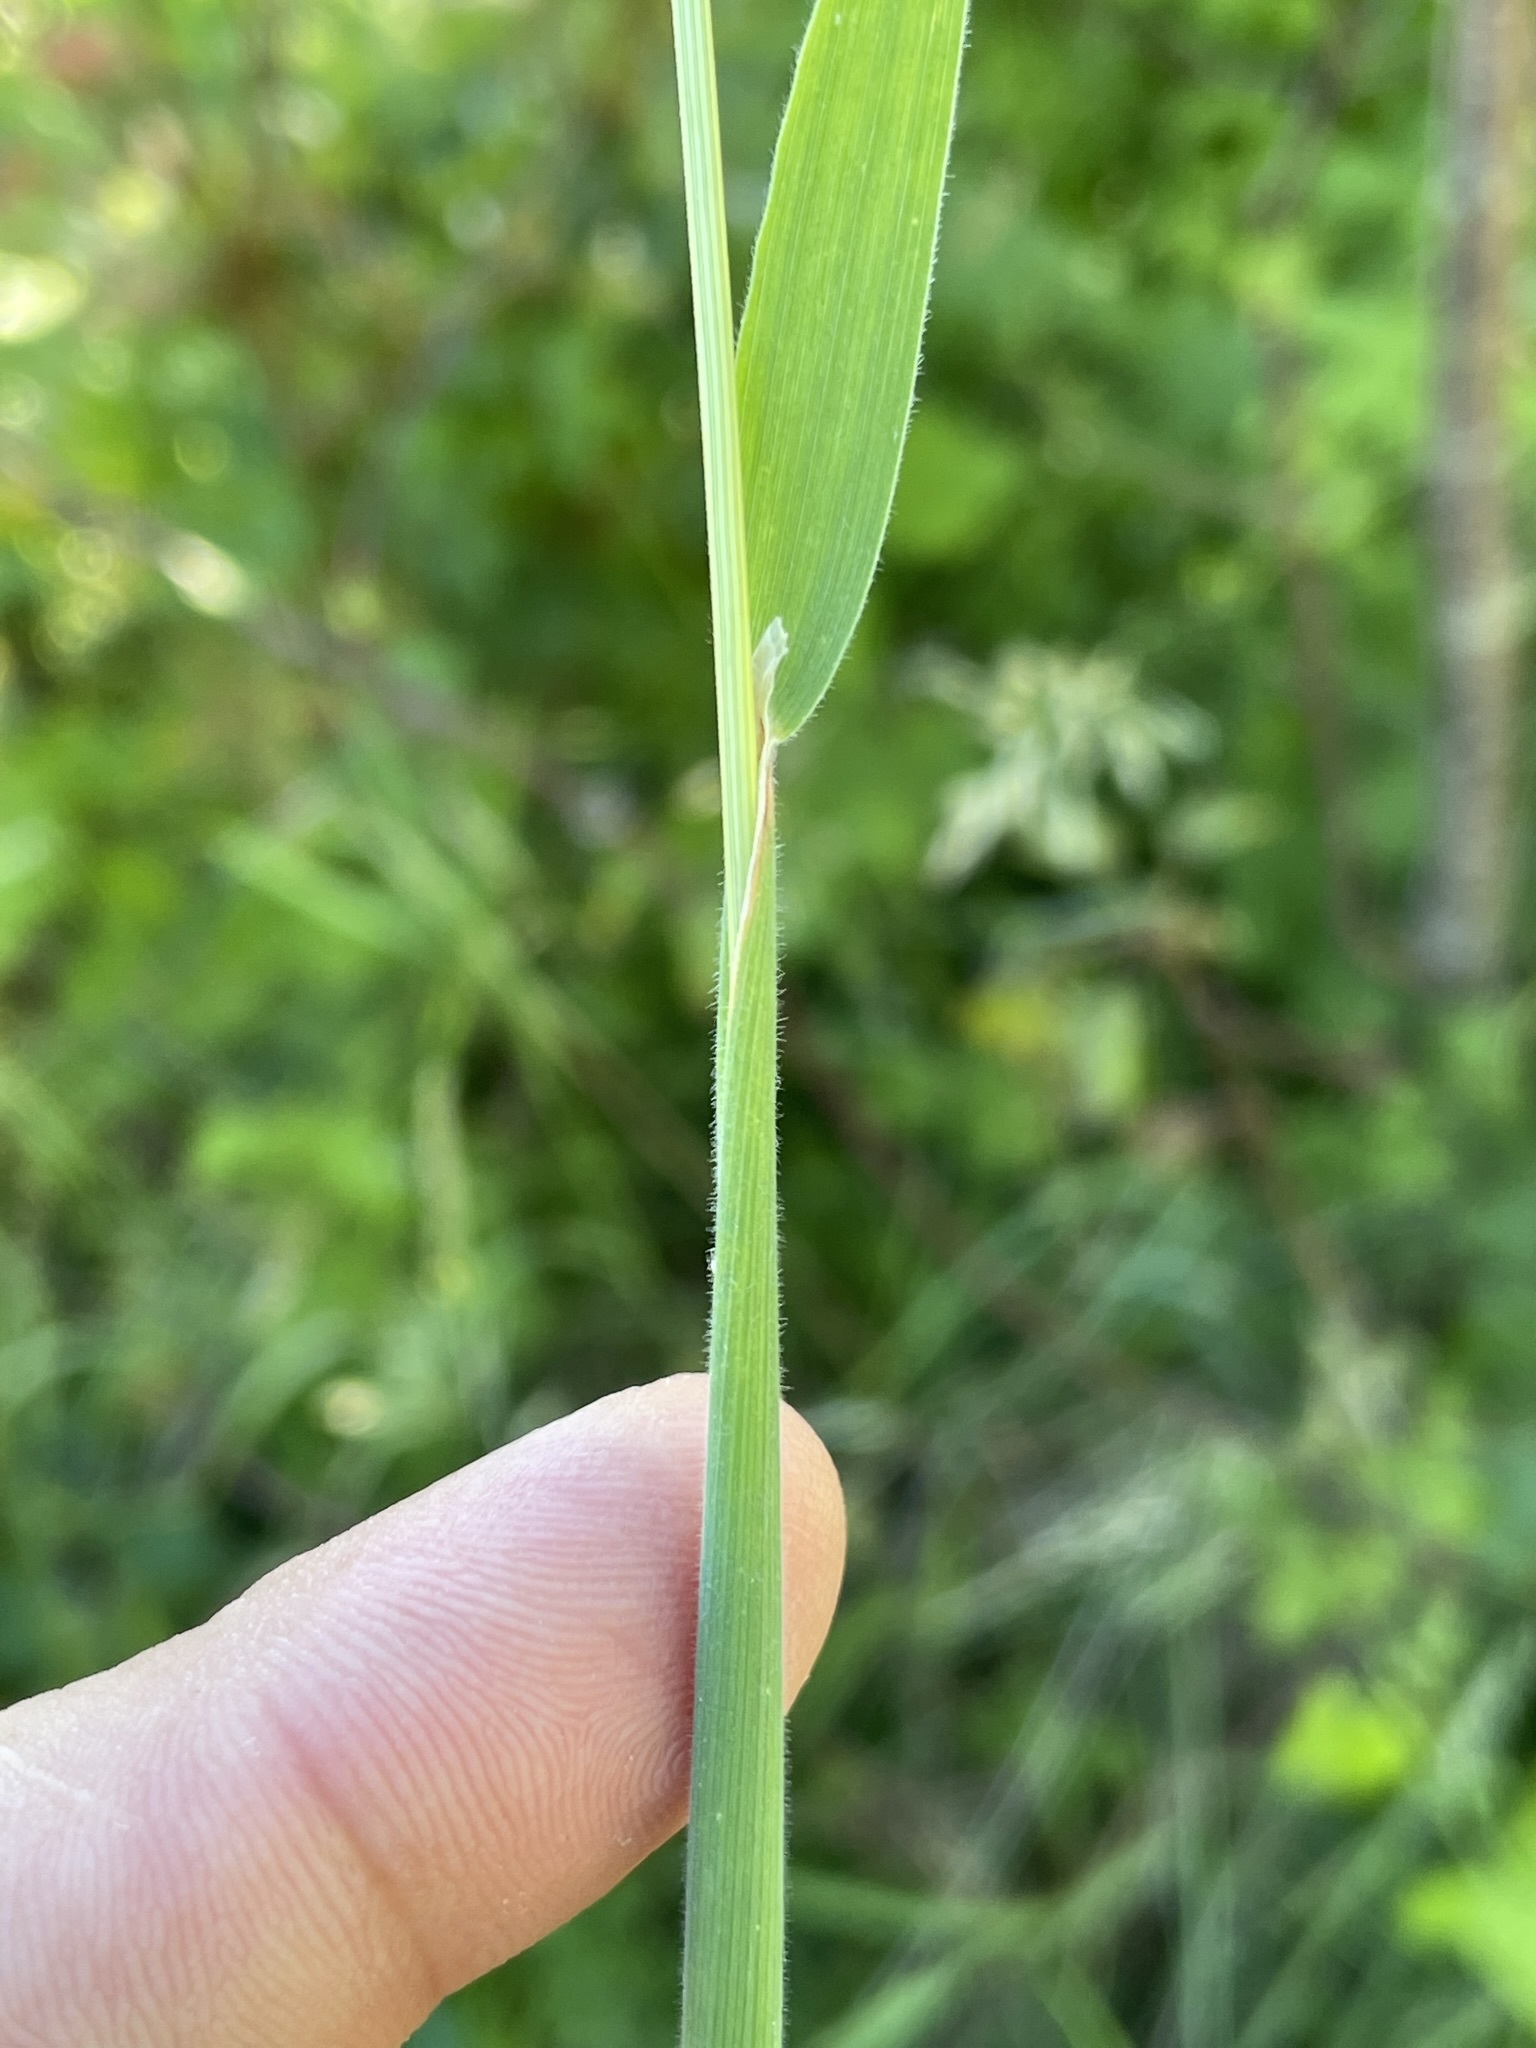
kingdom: Plantae
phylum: Tracheophyta
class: Liliopsida
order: Poales
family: Poaceae
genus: Holcus
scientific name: Holcus lanatus
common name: Yorkshire-fog
